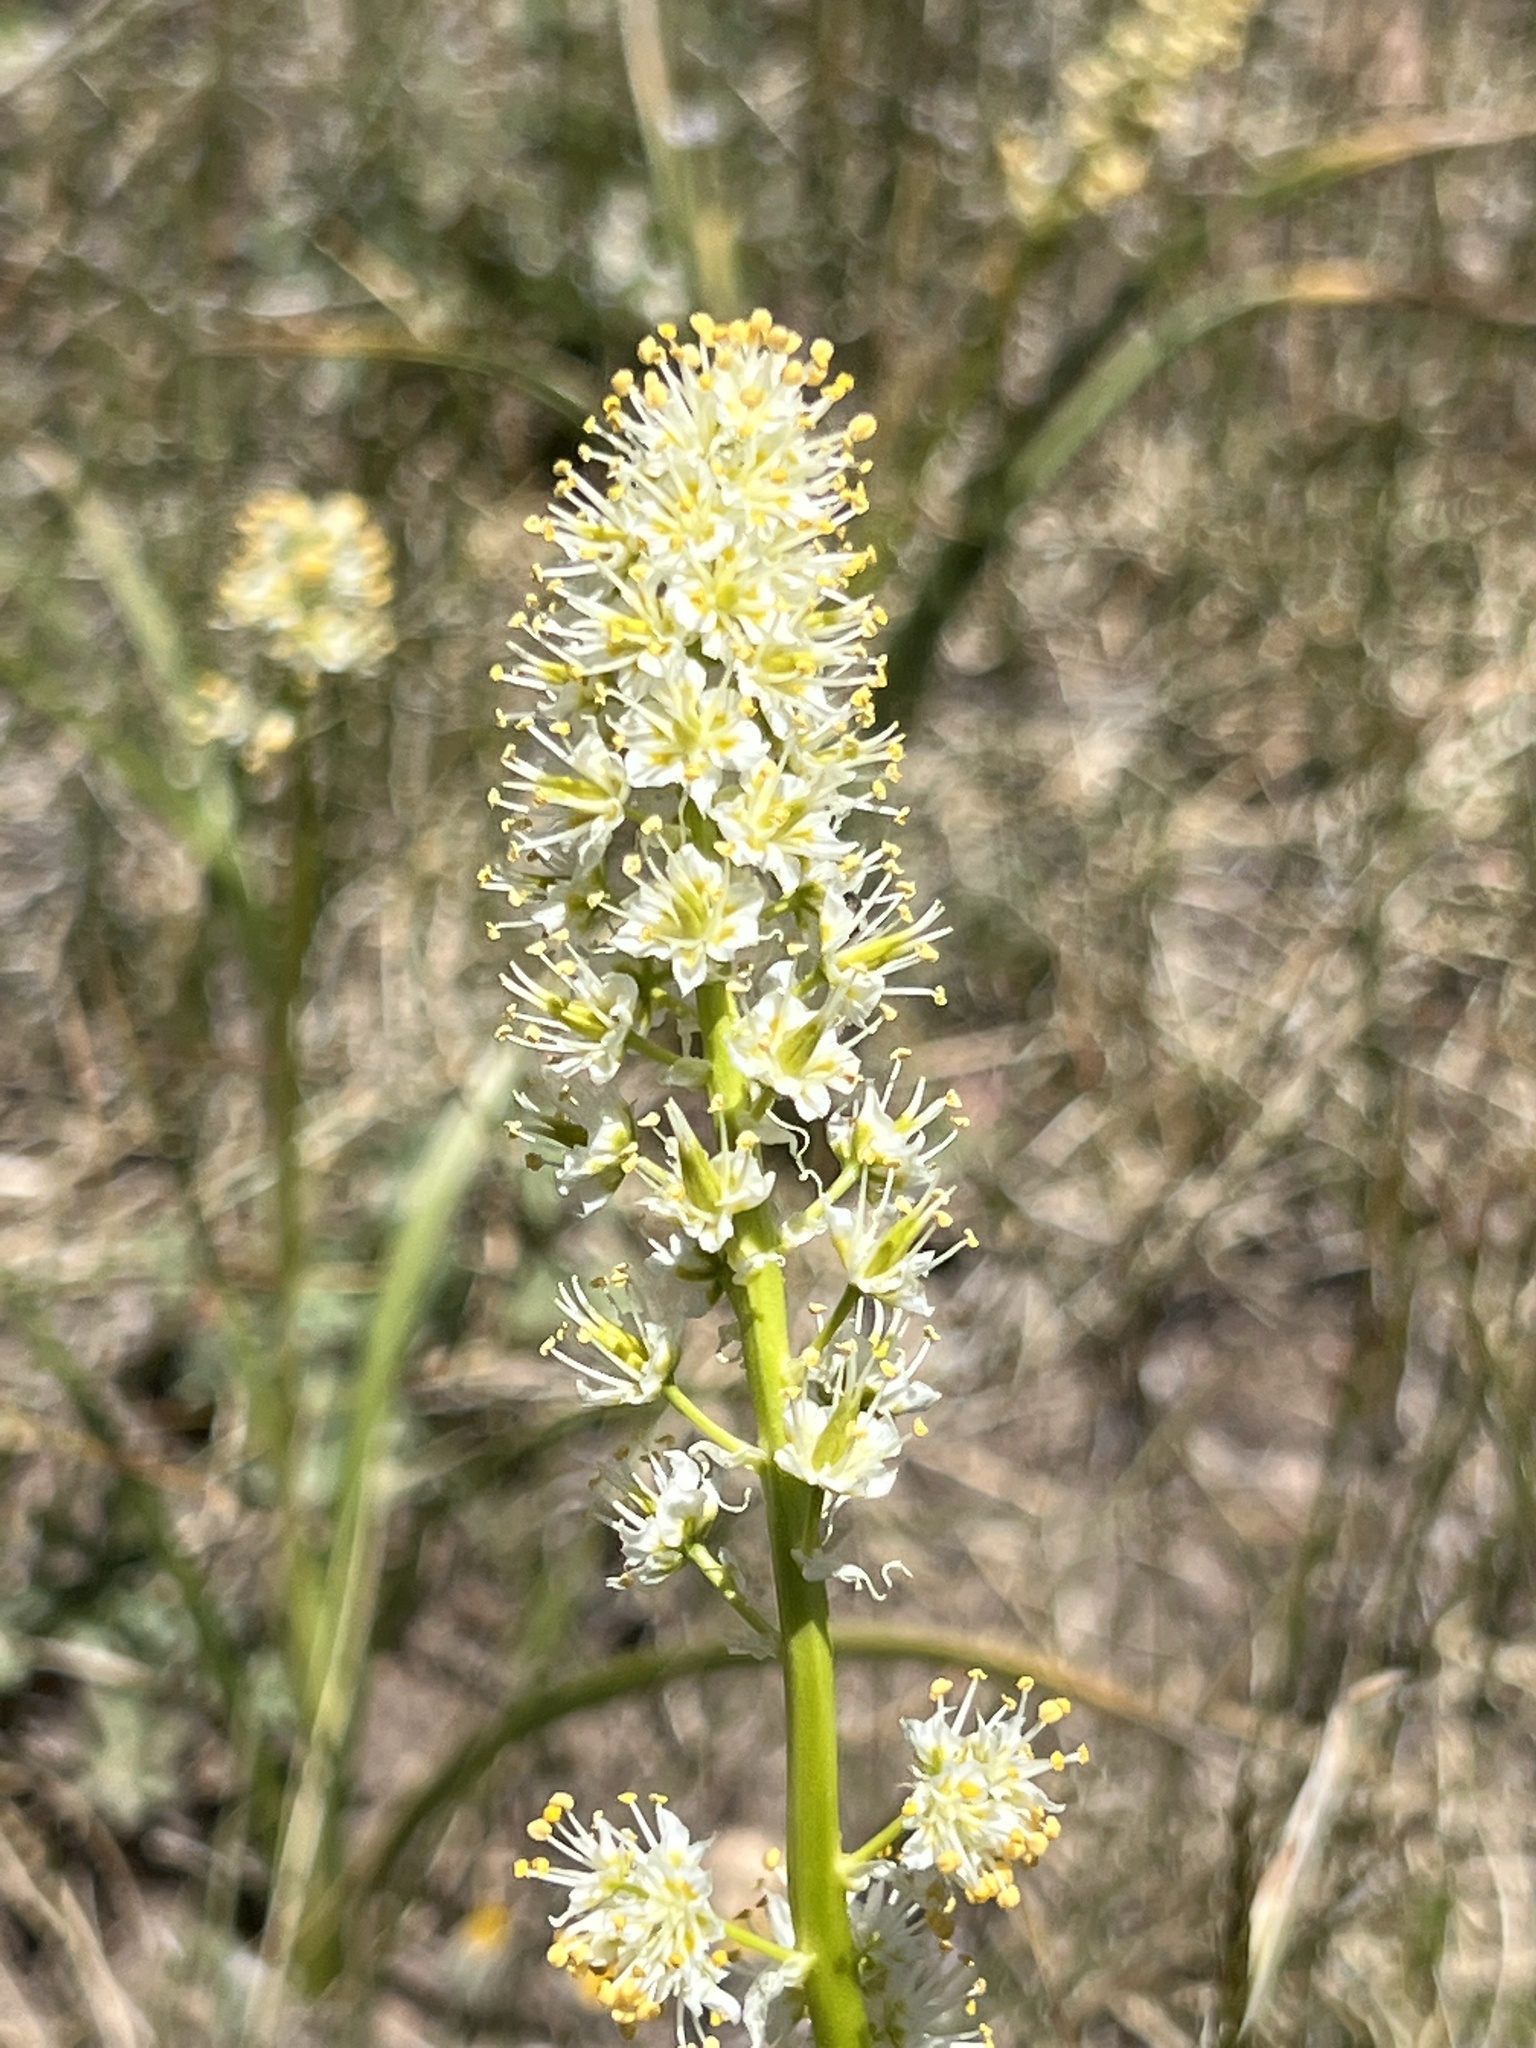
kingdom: Plantae
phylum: Tracheophyta
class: Liliopsida
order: Liliales
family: Melanthiaceae
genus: Toxicoscordion
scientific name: Toxicoscordion paniculatum
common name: Foothill death camas
